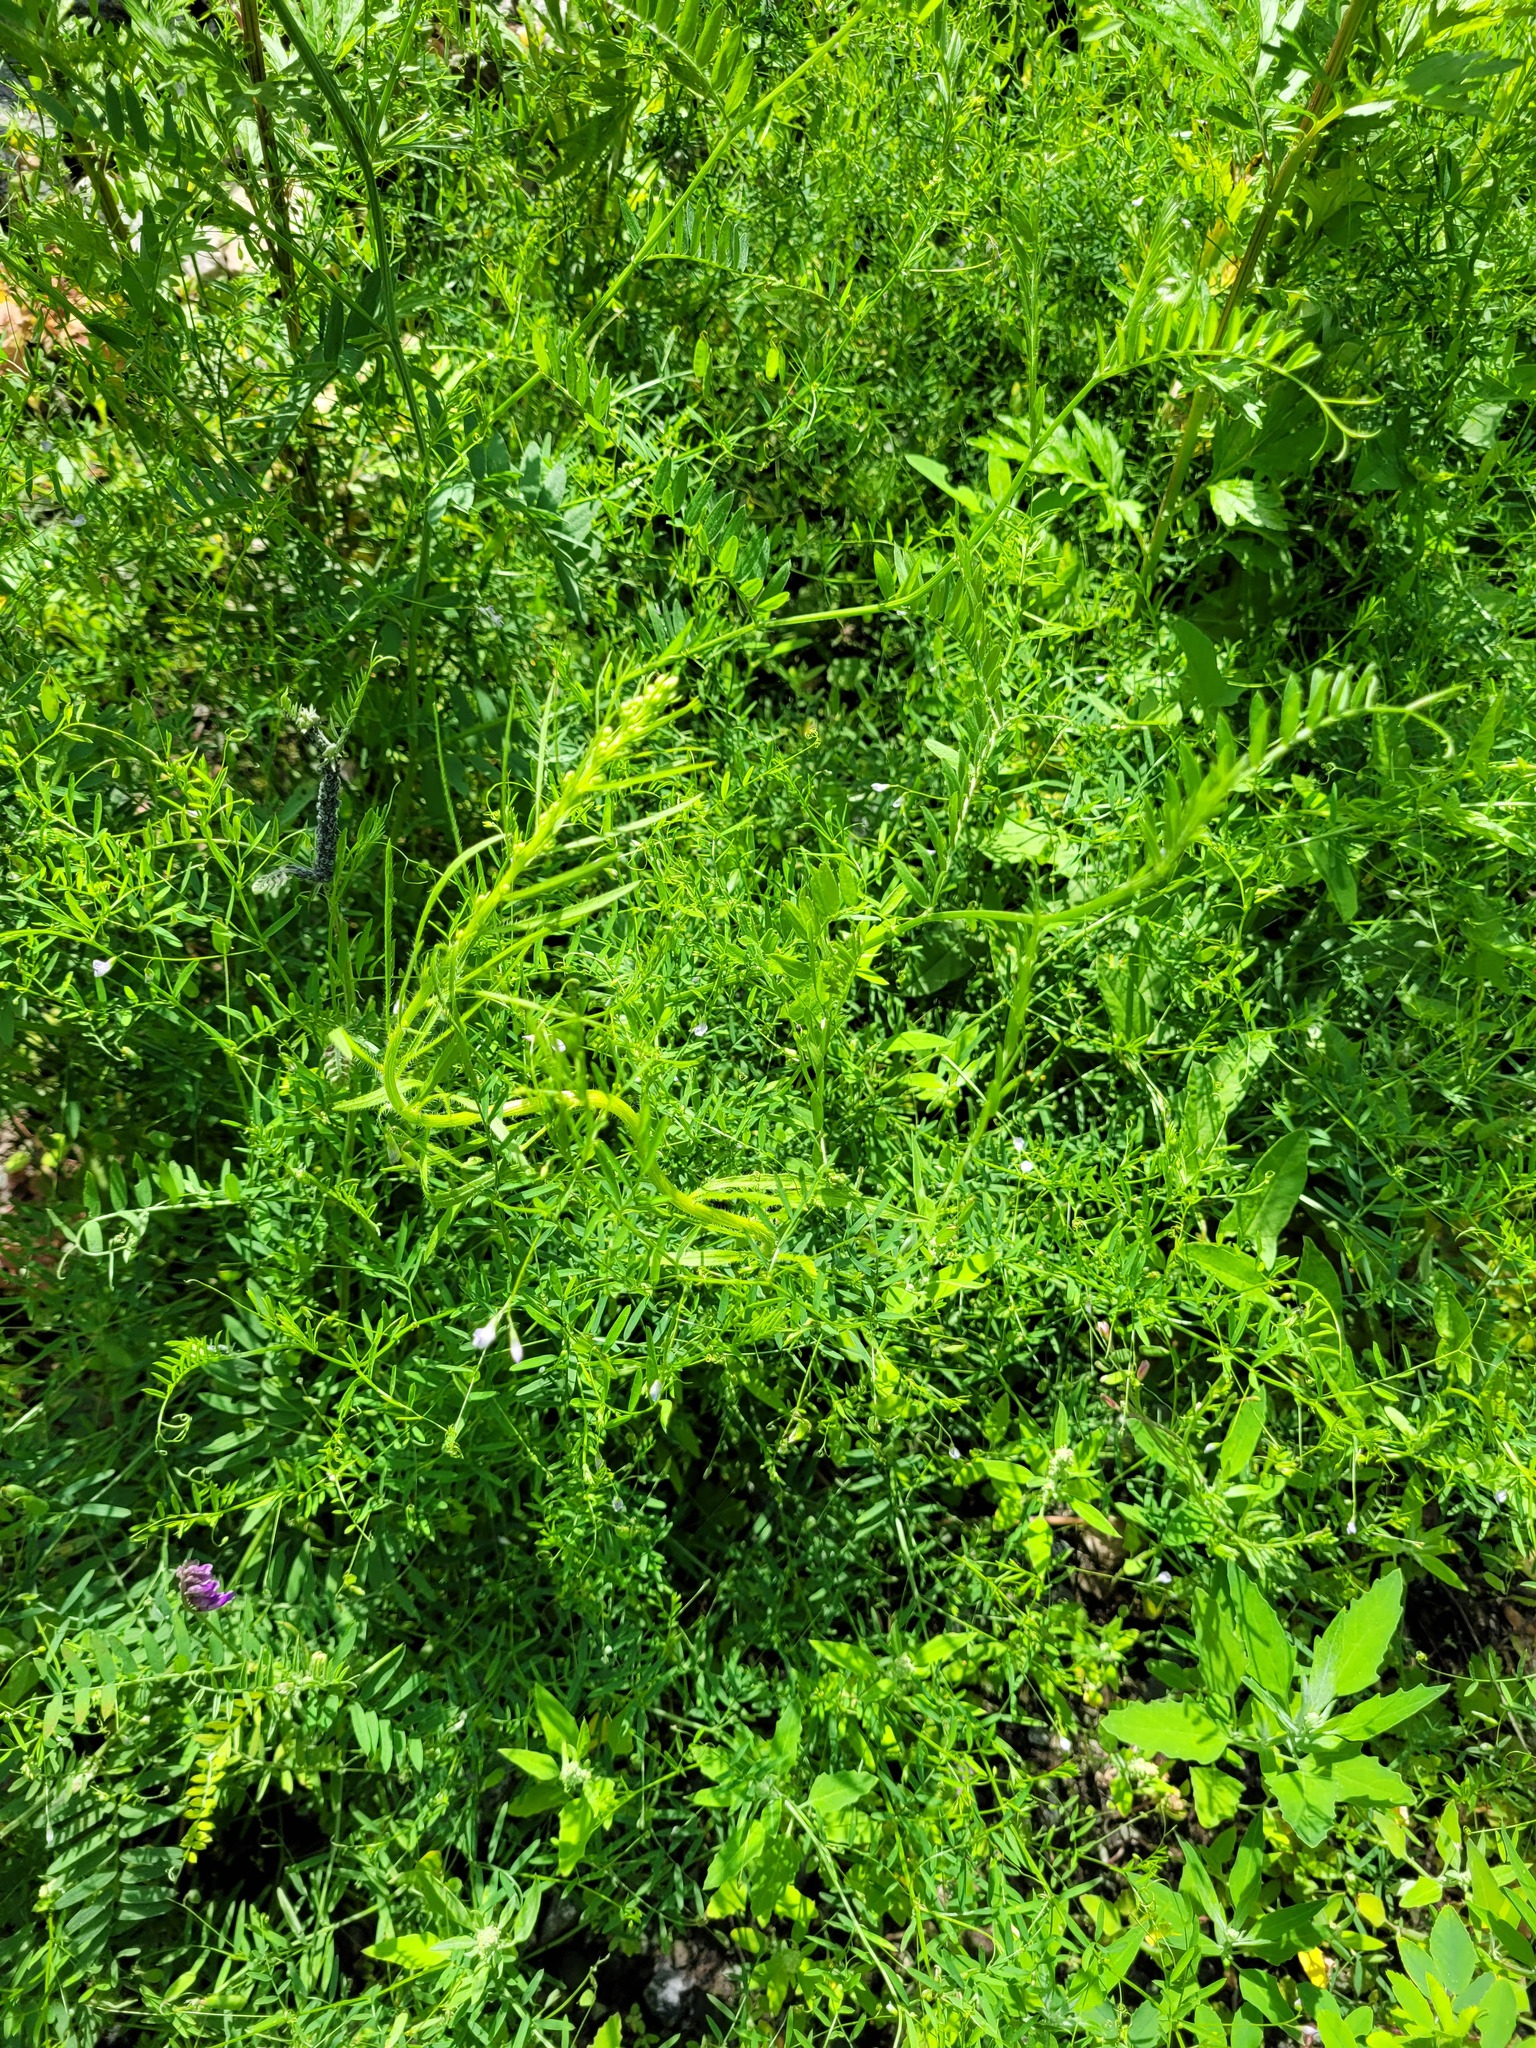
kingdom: Plantae
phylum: Tracheophyta
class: Magnoliopsida
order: Fabales
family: Fabaceae
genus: Vicia
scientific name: Vicia tetrasperma
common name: Smooth tare
